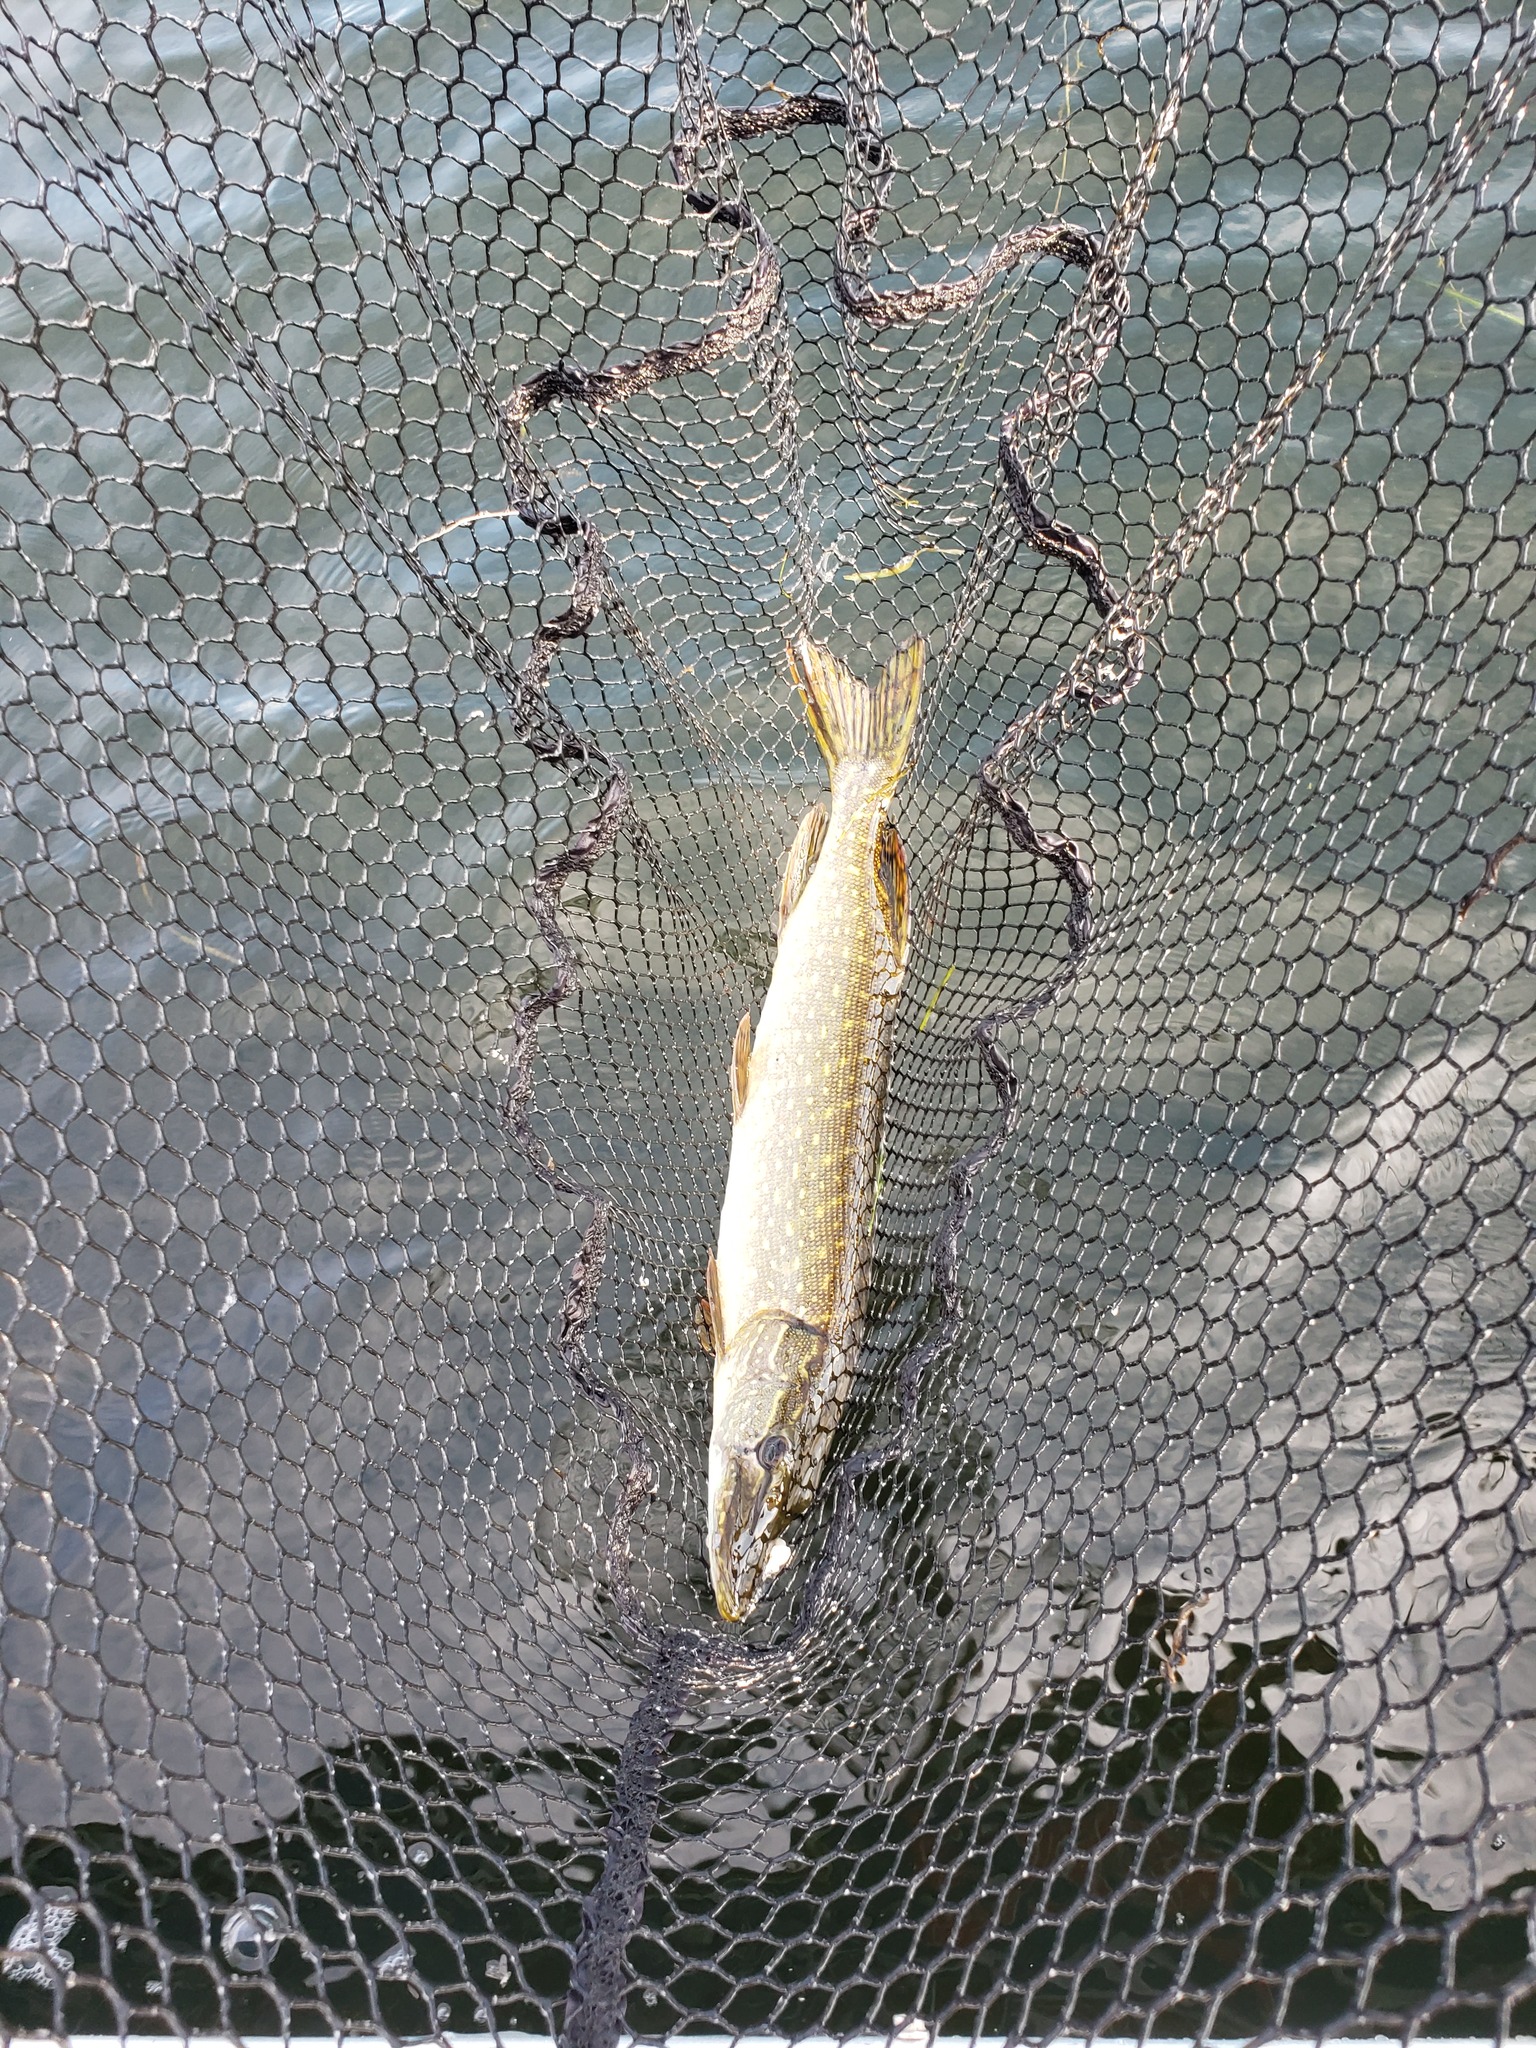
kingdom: Animalia
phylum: Chordata
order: Esociformes
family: Esocidae
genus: Esox
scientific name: Esox lucius
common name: Northern pike
